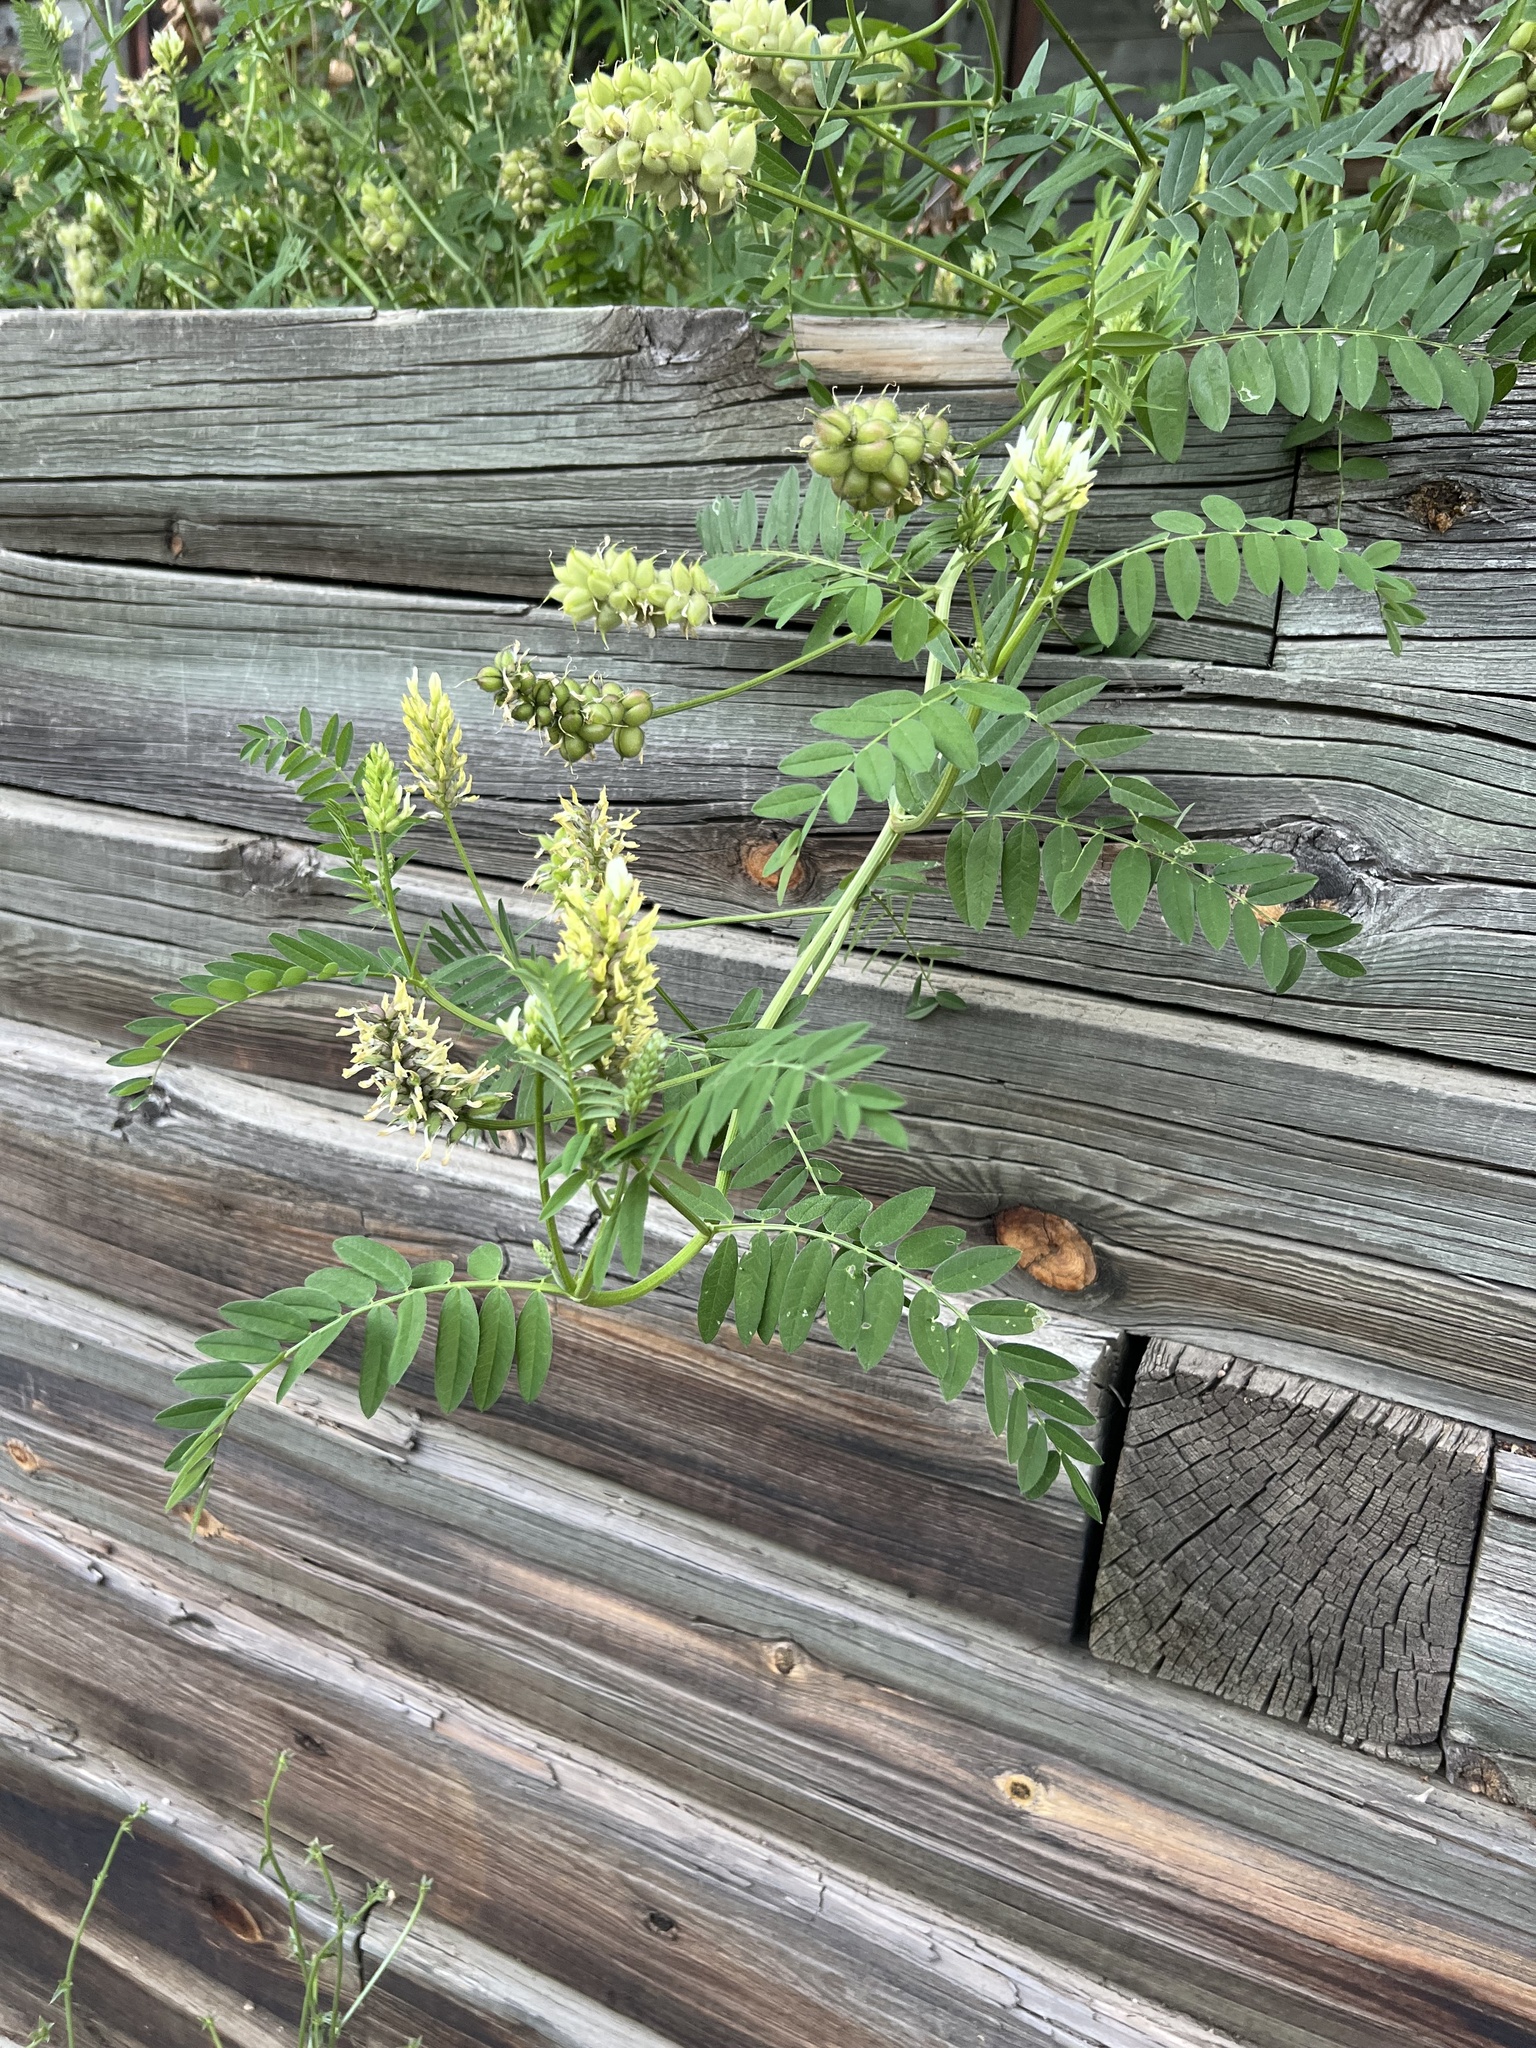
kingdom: Plantae
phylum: Tracheophyta
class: Magnoliopsida
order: Fabales
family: Fabaceae
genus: Astragalus
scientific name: Astragalus cicer
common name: Chick-pea milk-vetch
